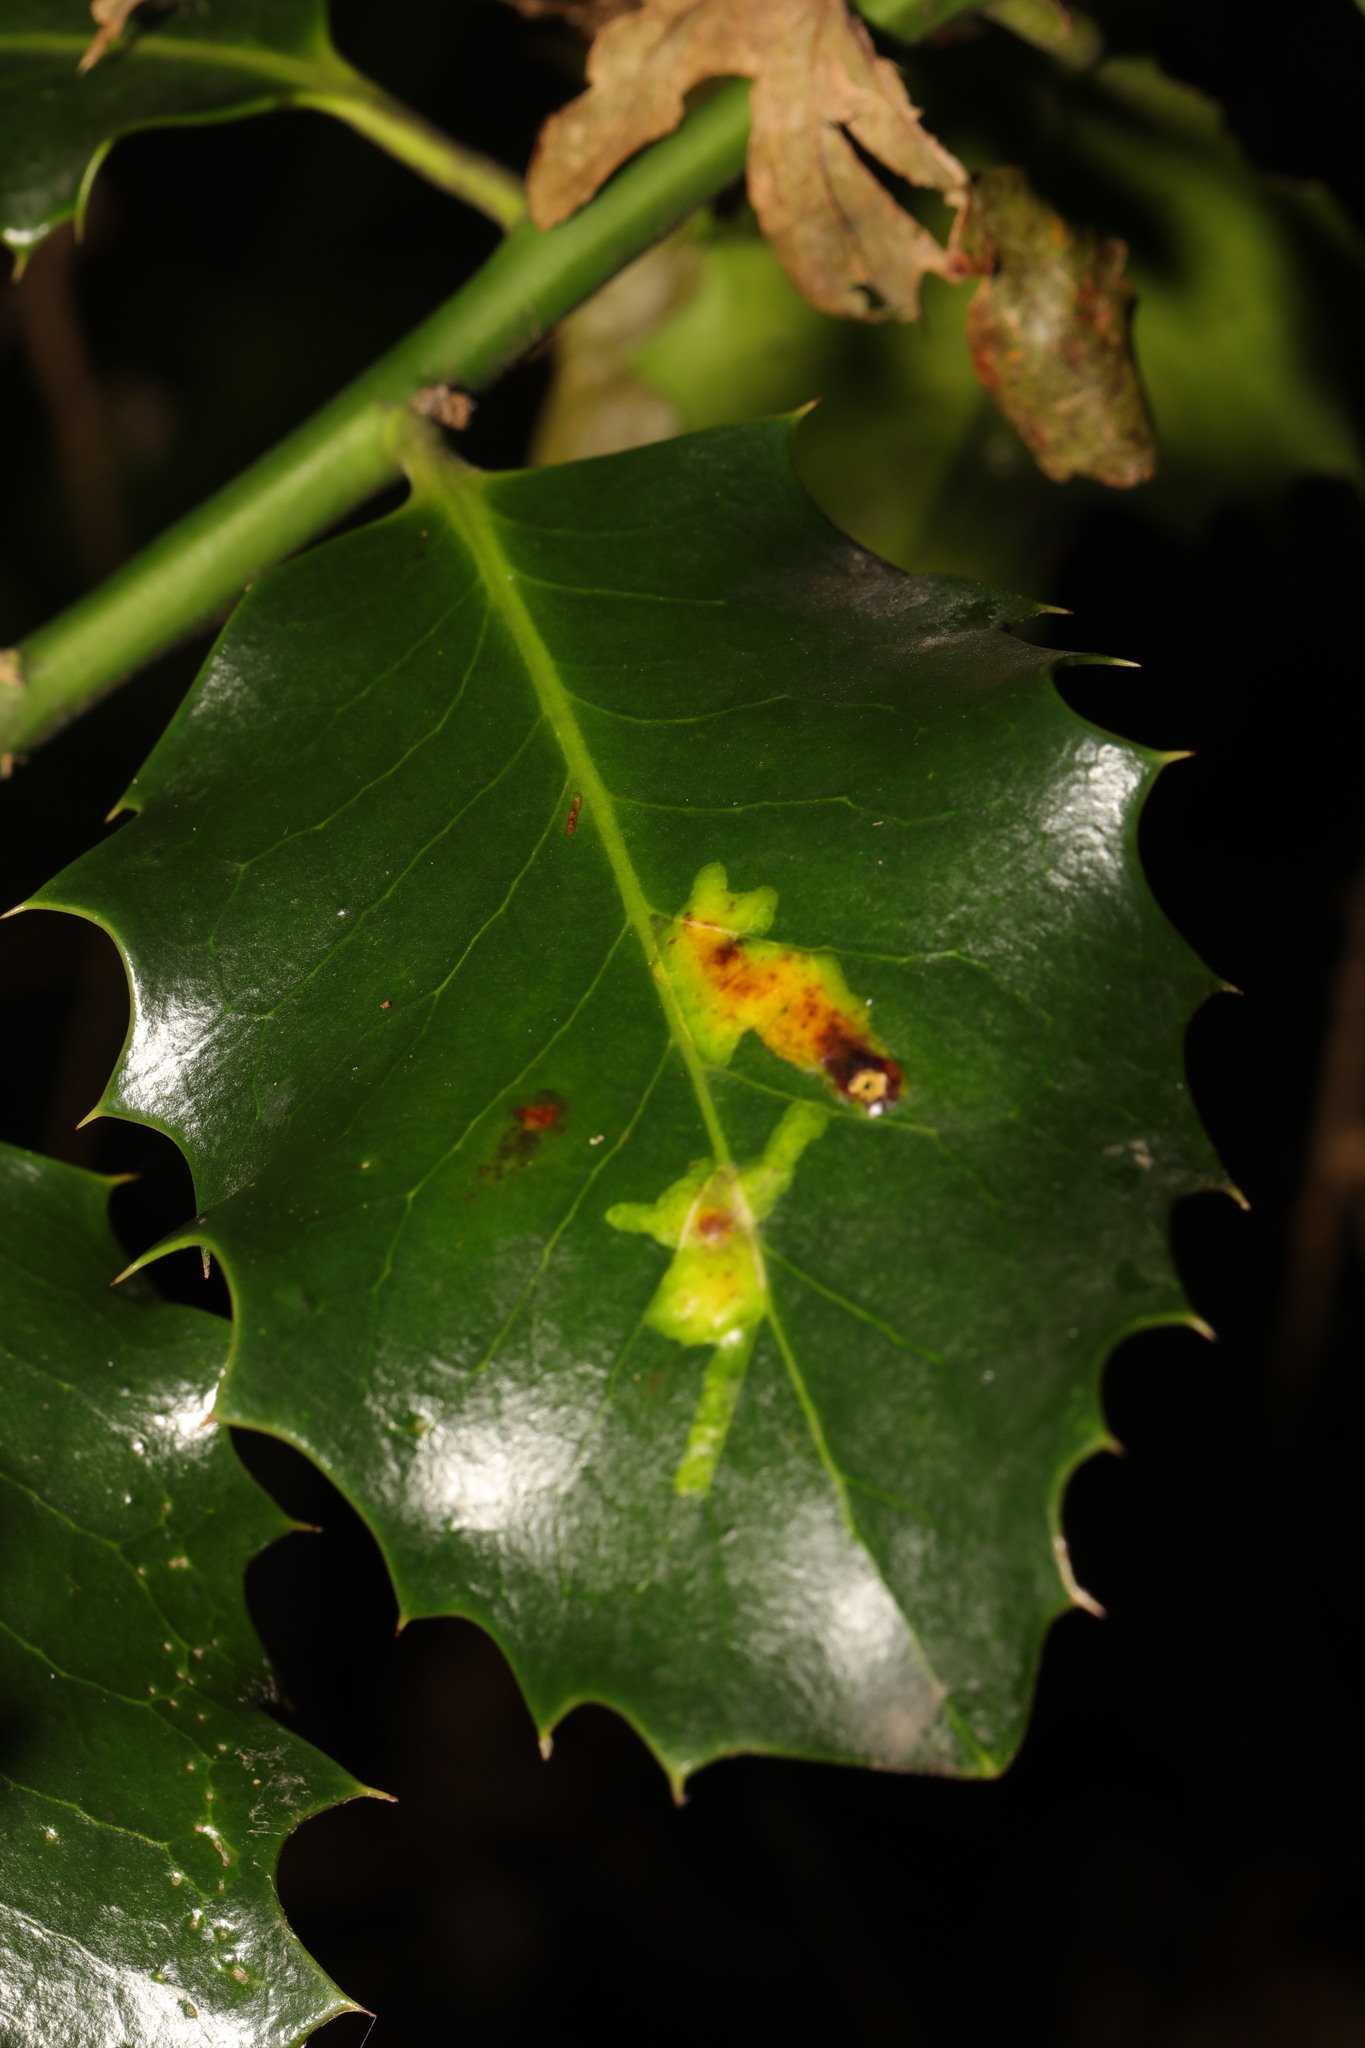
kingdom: Animalia
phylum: Arthropoda
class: Insecta
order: Diptera
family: Agromyzidae
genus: Phytomyza
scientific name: Phytomyza ilicis
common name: Holly leafminer
